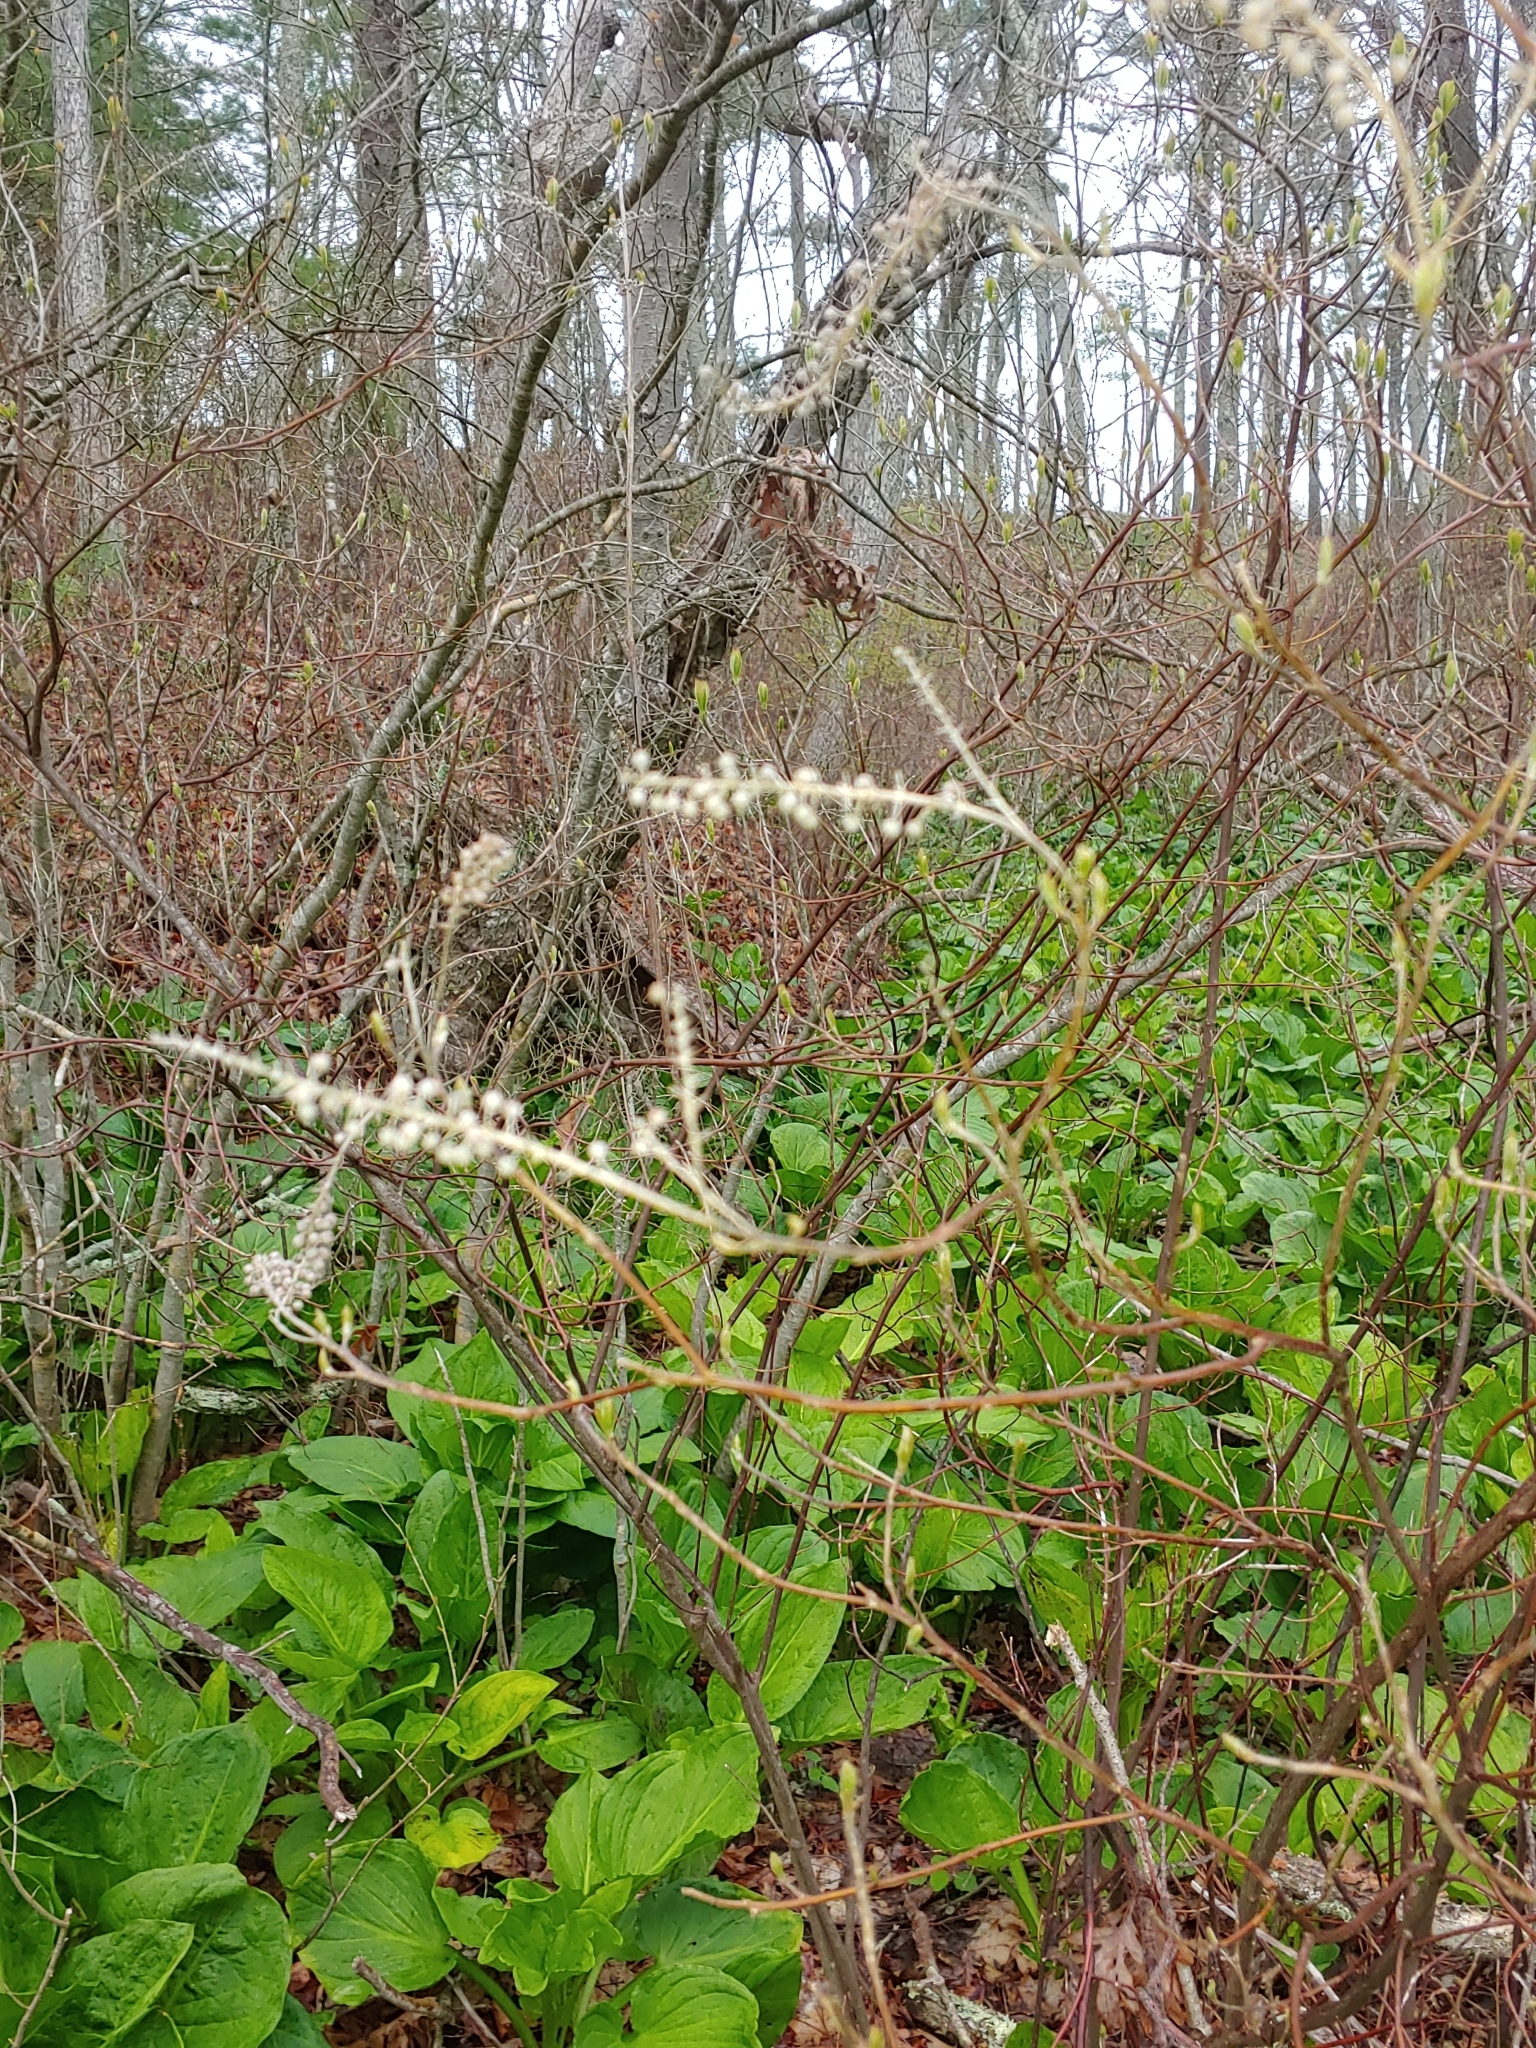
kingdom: Plantae
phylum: Tracheophyta
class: Magnoliopsida
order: Ericales
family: Clethraceae
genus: Clethra
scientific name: Clethra alnifolia
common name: Sweet pepperbush
